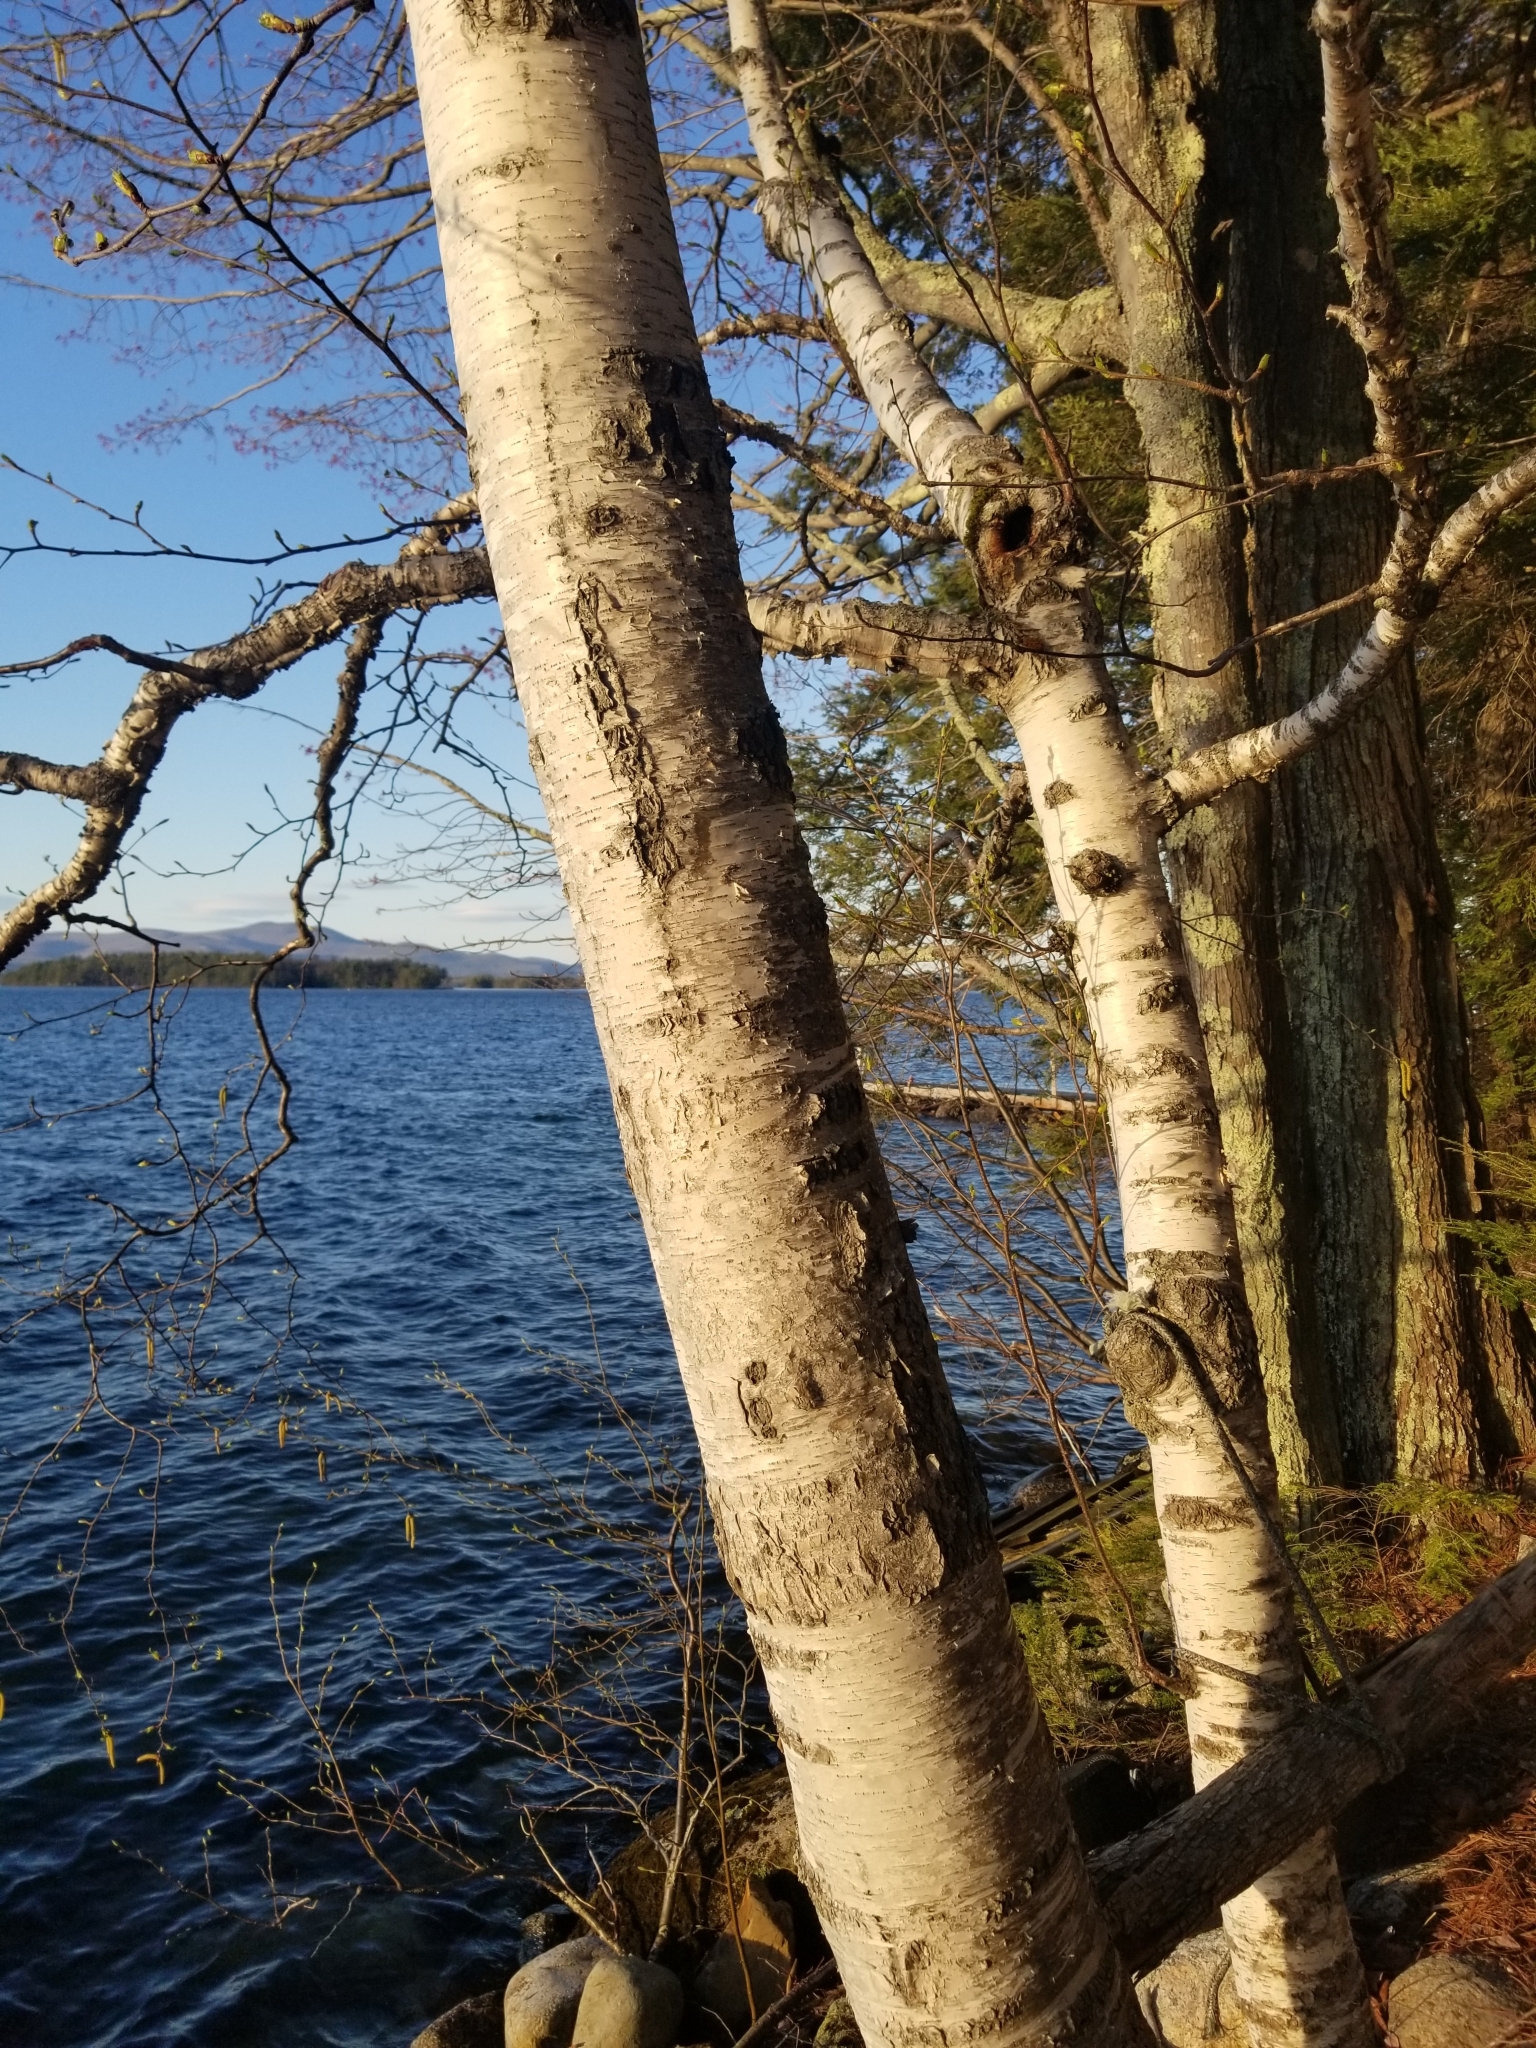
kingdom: Plantae
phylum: Tracheophyta
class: Magnoliopsida
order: Fagales
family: Betulaceae
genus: Betula
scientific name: Betula papyrifera
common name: Paper birch
